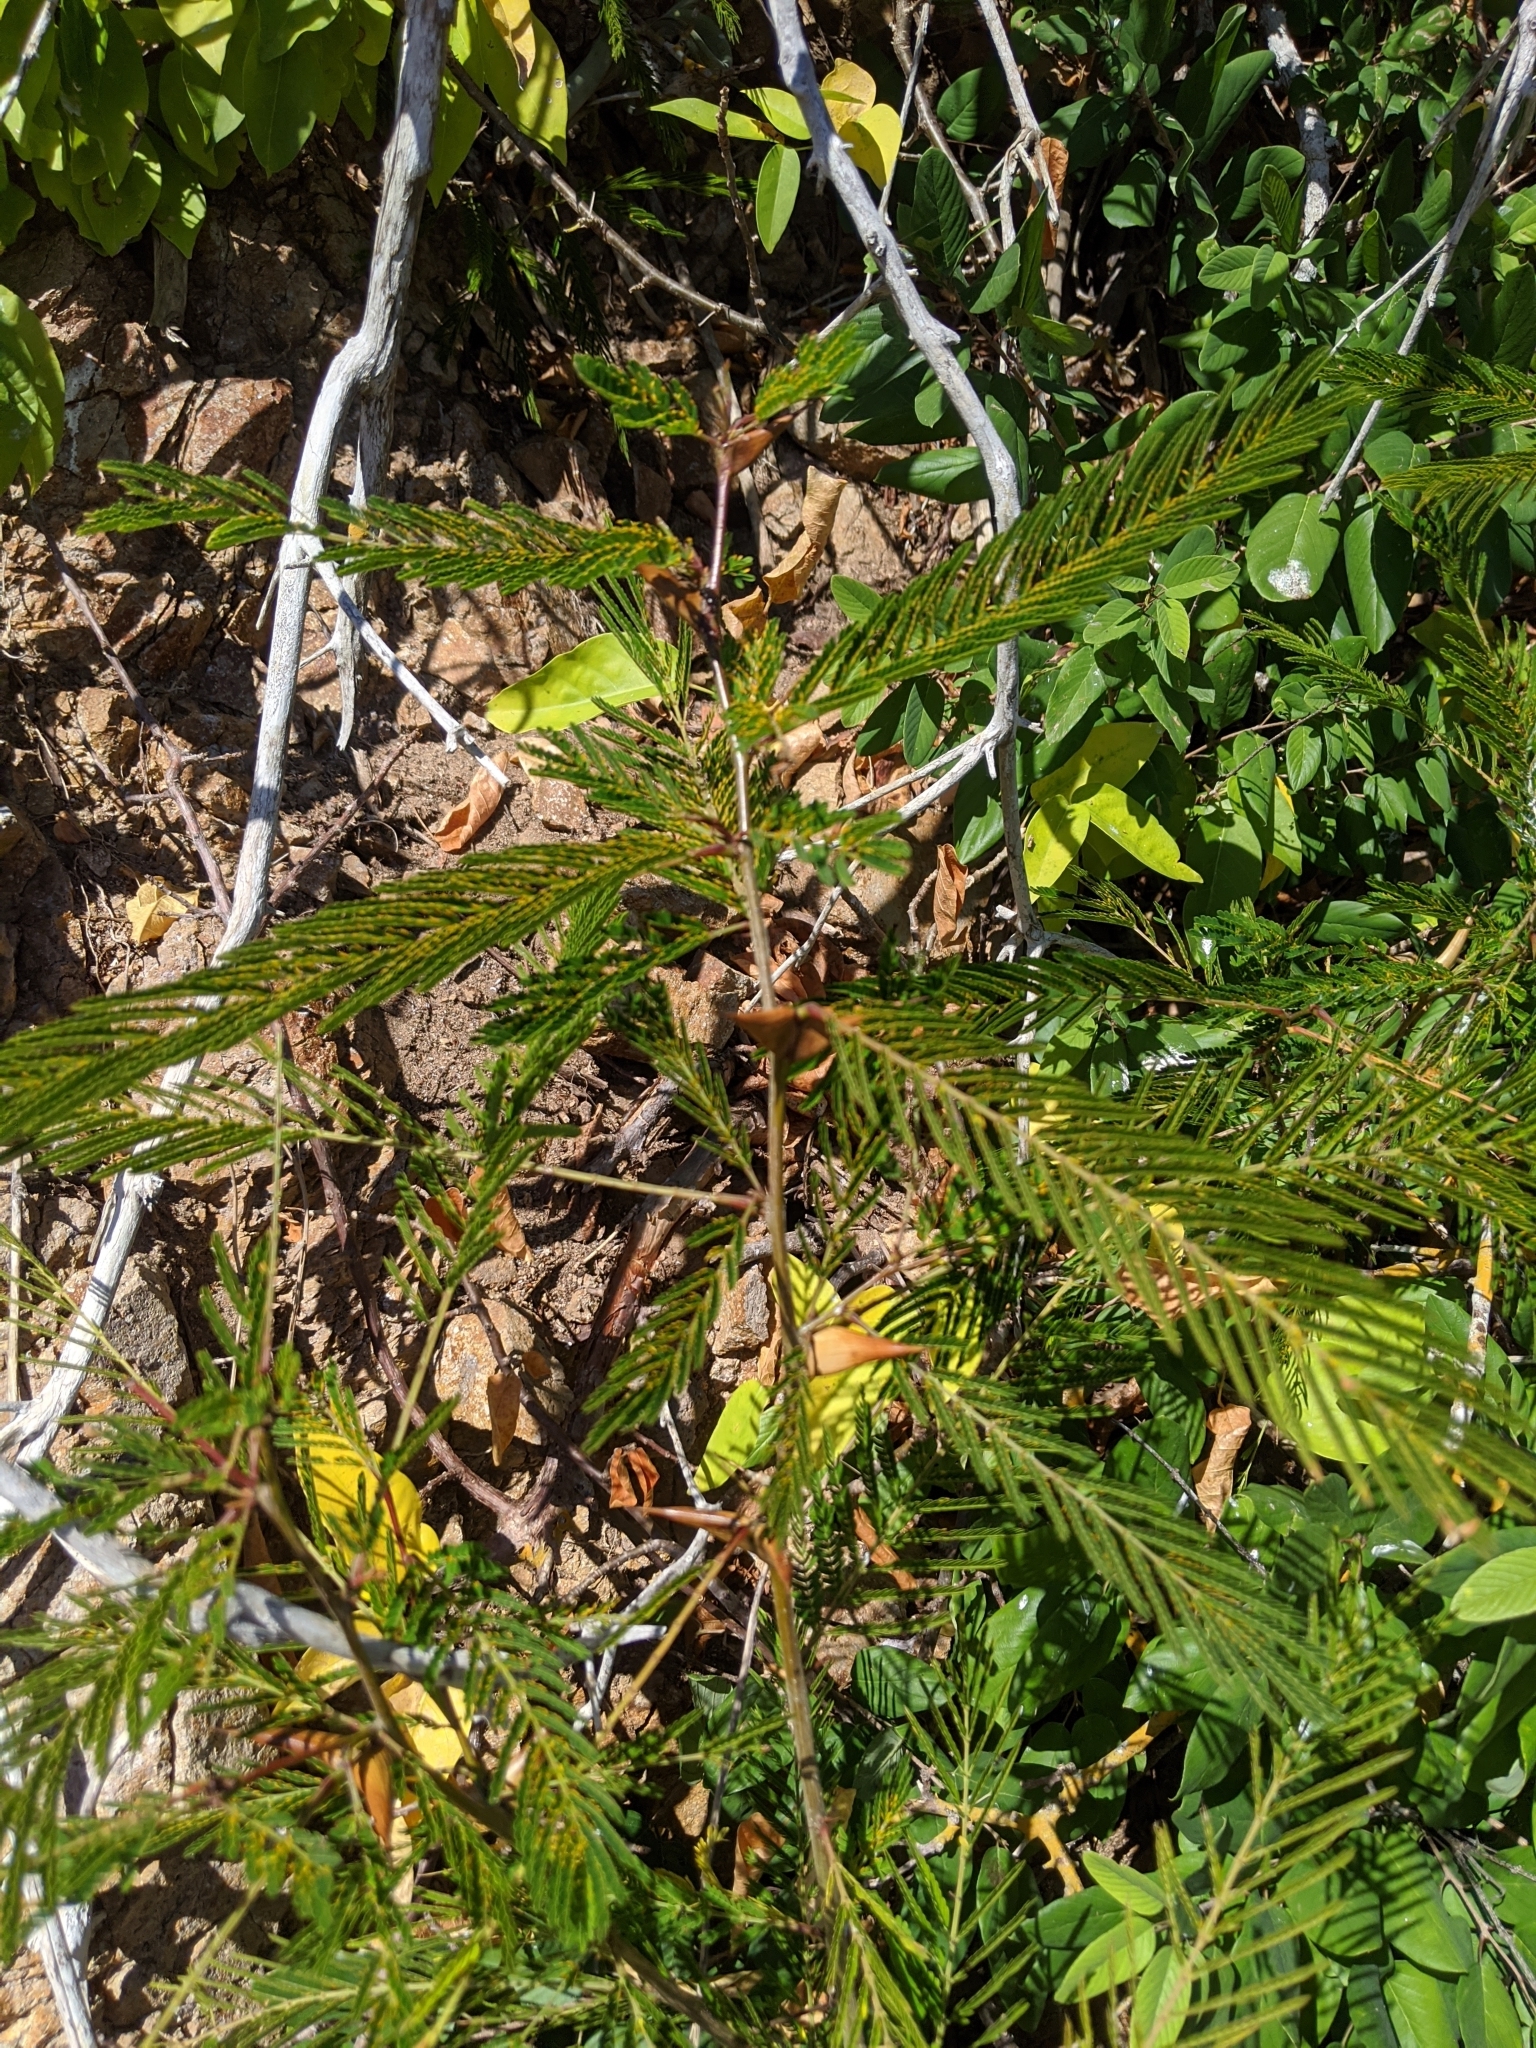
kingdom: Plantae
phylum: Tracheophyta
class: Magnoliopsida
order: Fabales
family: Fabaceae
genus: Vachellia
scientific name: Vachellia cornigera
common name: Bullhorn wattle
